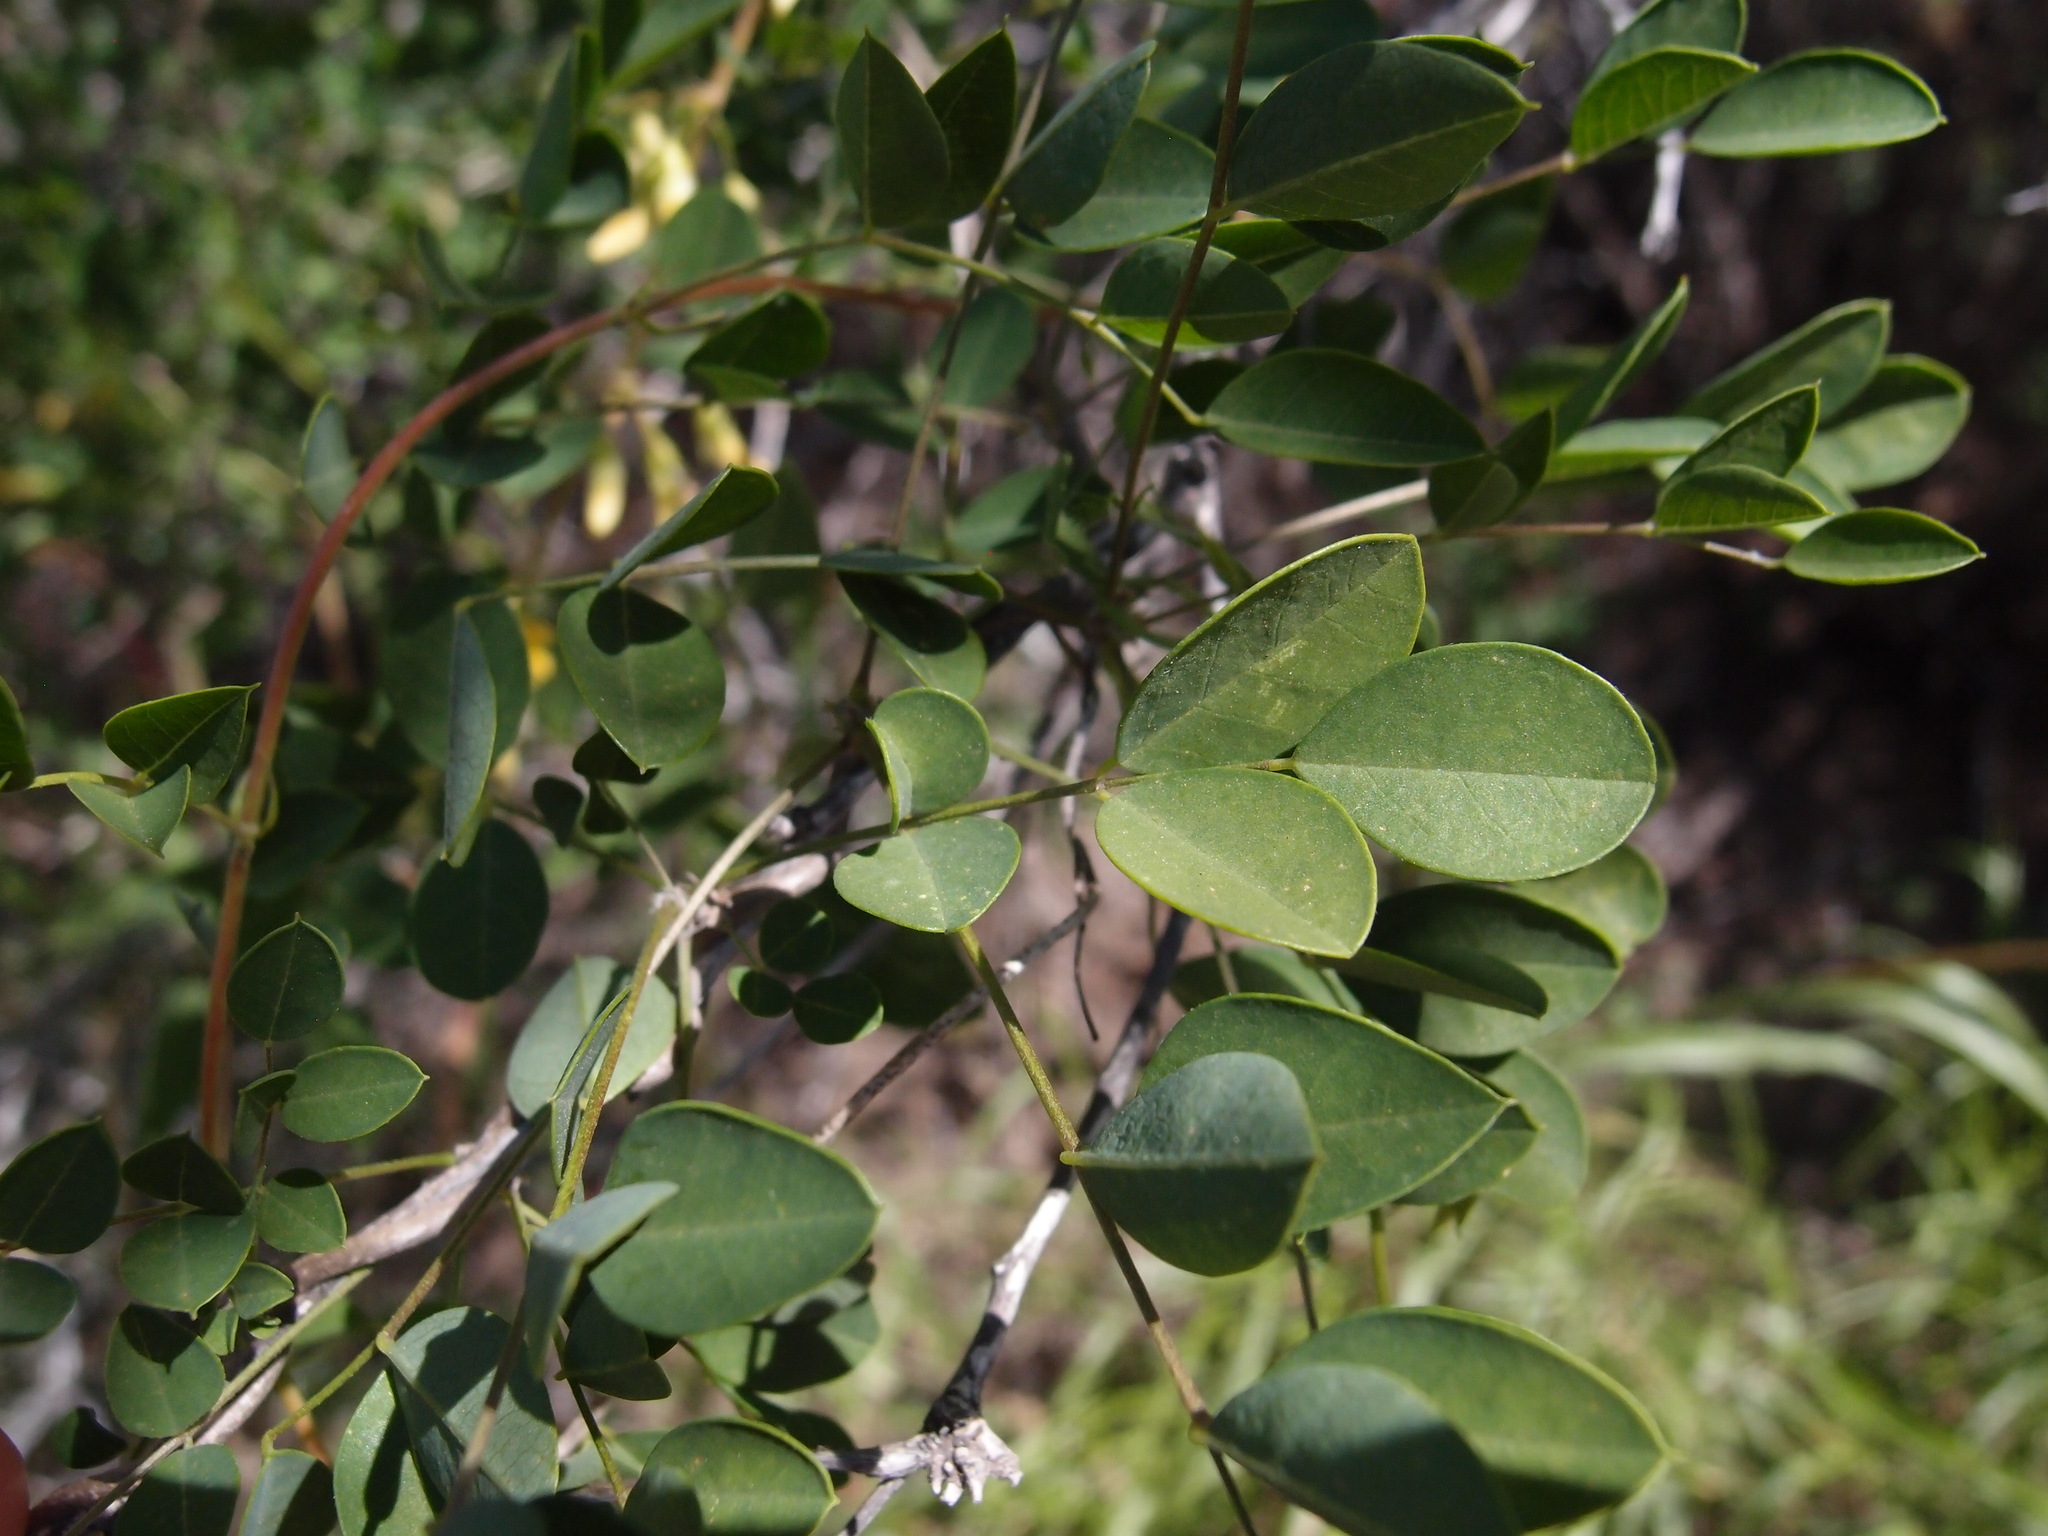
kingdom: Plantae
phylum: Tracheophyta
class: Magnoliopsida
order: Fabales
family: Fabaceae
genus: Nissolia
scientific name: Nissolia schottii
